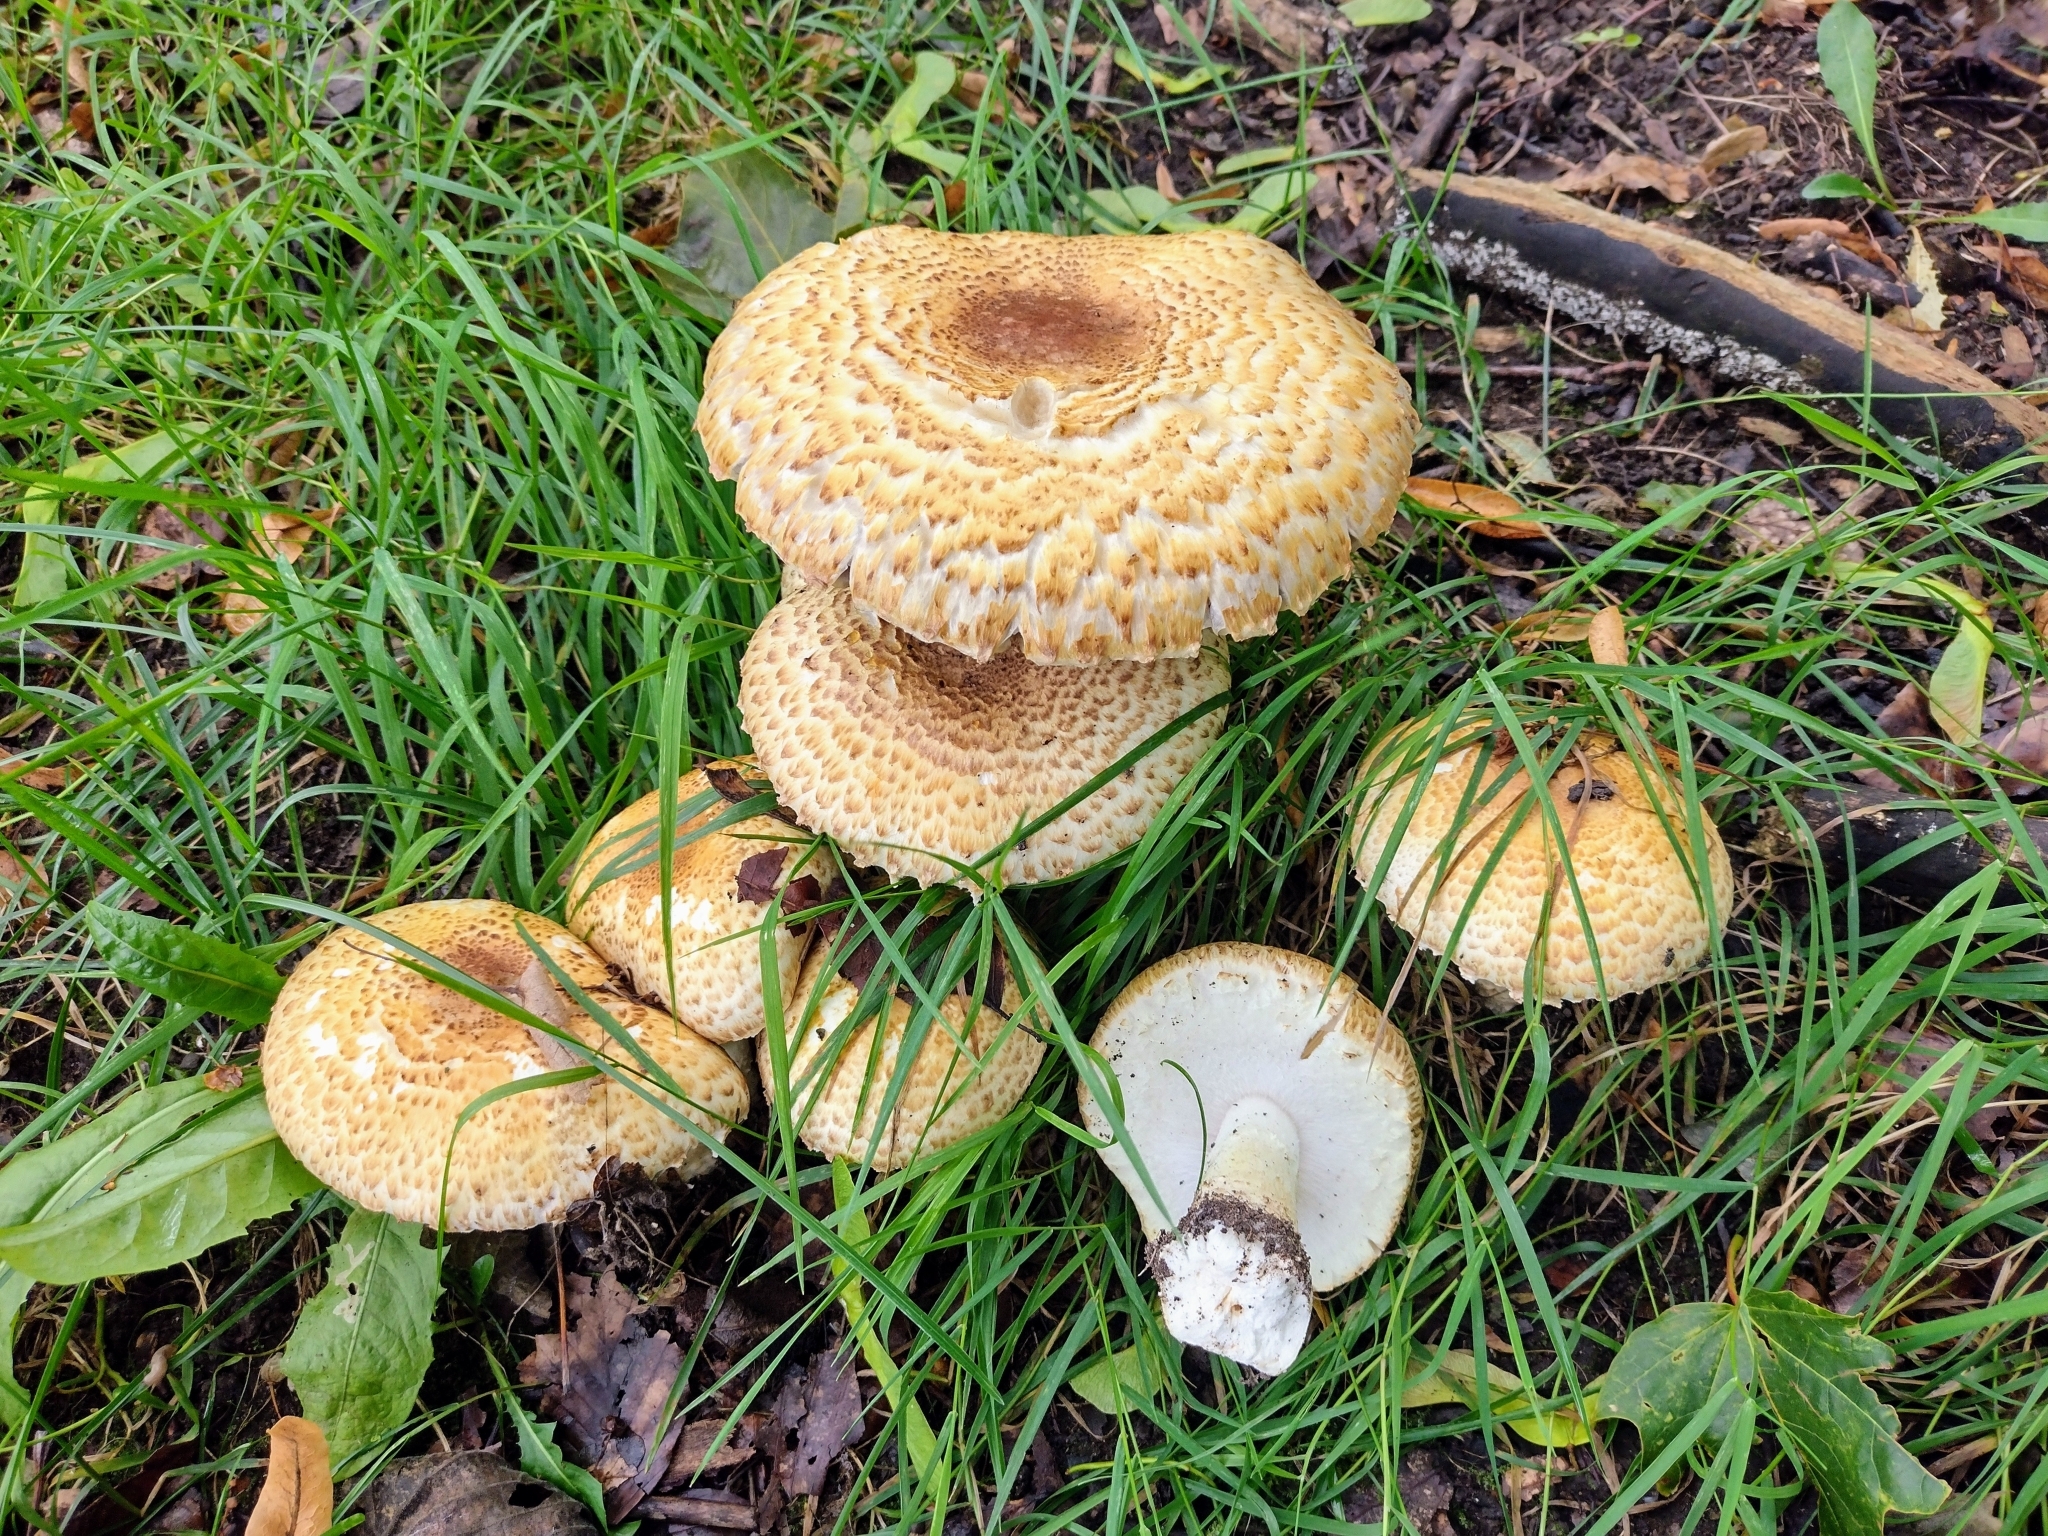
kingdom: Fungi
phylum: Basidiomycota
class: Agaricomycetes
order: Agaricales
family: Agaricaceae
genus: Agaricus
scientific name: Agaricus augustus
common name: Prince
